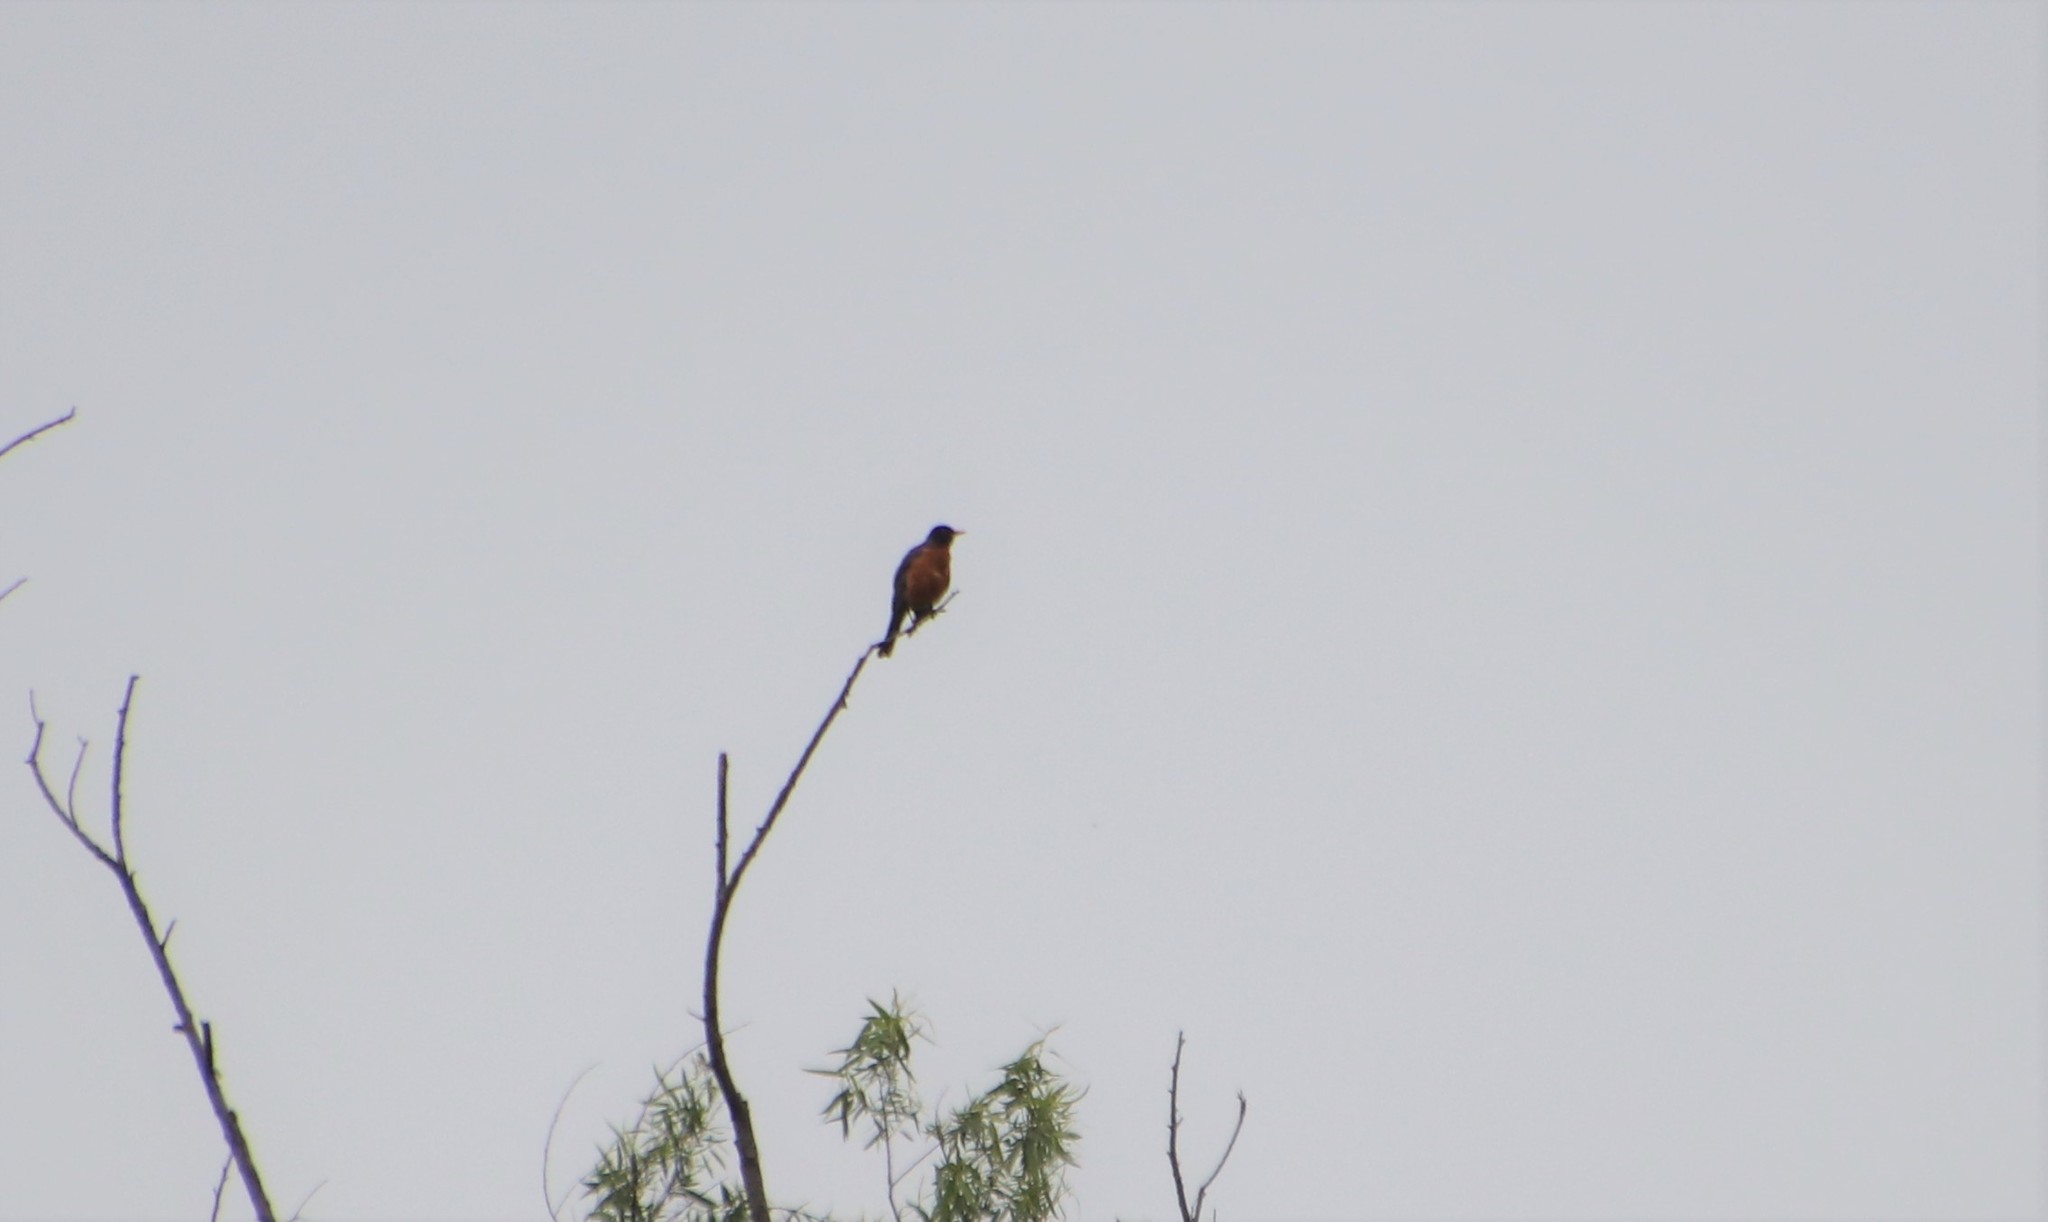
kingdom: Animalia
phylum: Chordata
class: Aves
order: Passeriformes
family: Turdidae
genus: Turdus
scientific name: Turdus migratorius
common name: American robin
